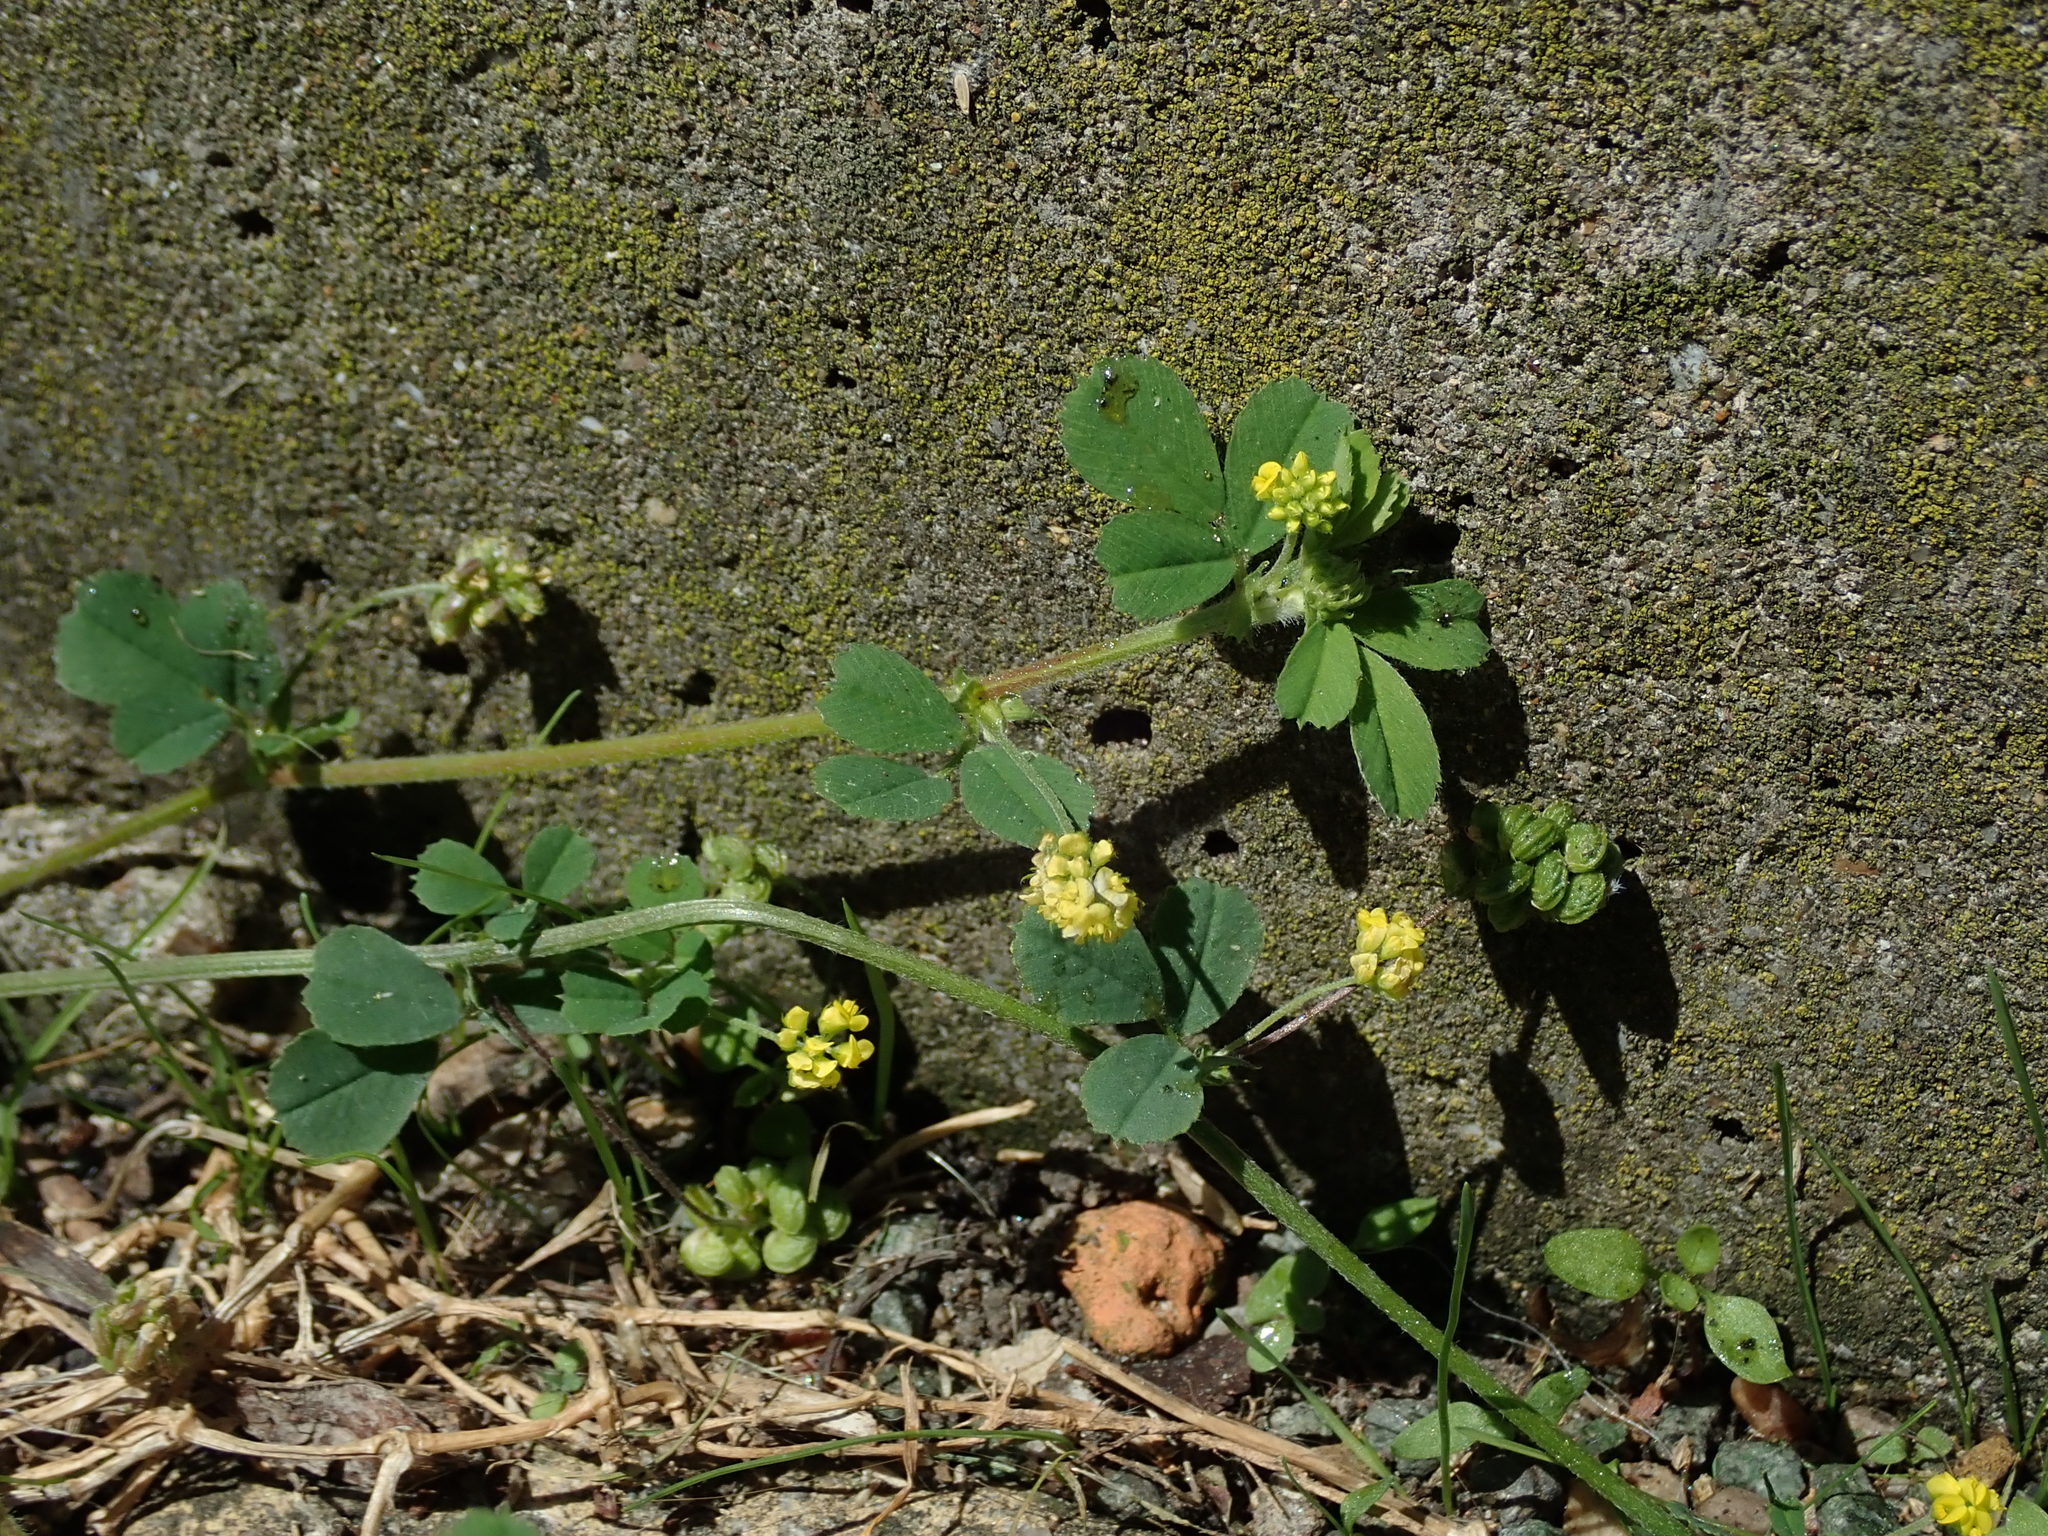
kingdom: Plantae
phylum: Tracheophyta
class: Magnoliopsida
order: Fabales
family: Fabaceae
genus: Medicago
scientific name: Medicago lupulina
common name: Black medick
